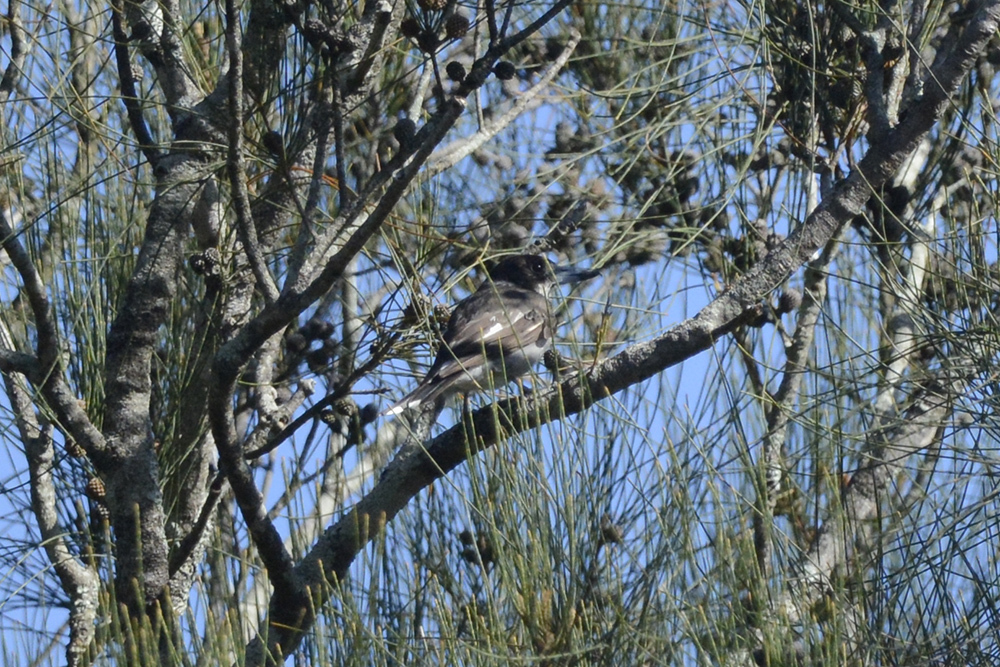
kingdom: Animalia
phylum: Chordata
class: Aves
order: Passeriformes
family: Cracticidae
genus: Cracticus
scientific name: Cracticus torquatus
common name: Grey butcherbird
